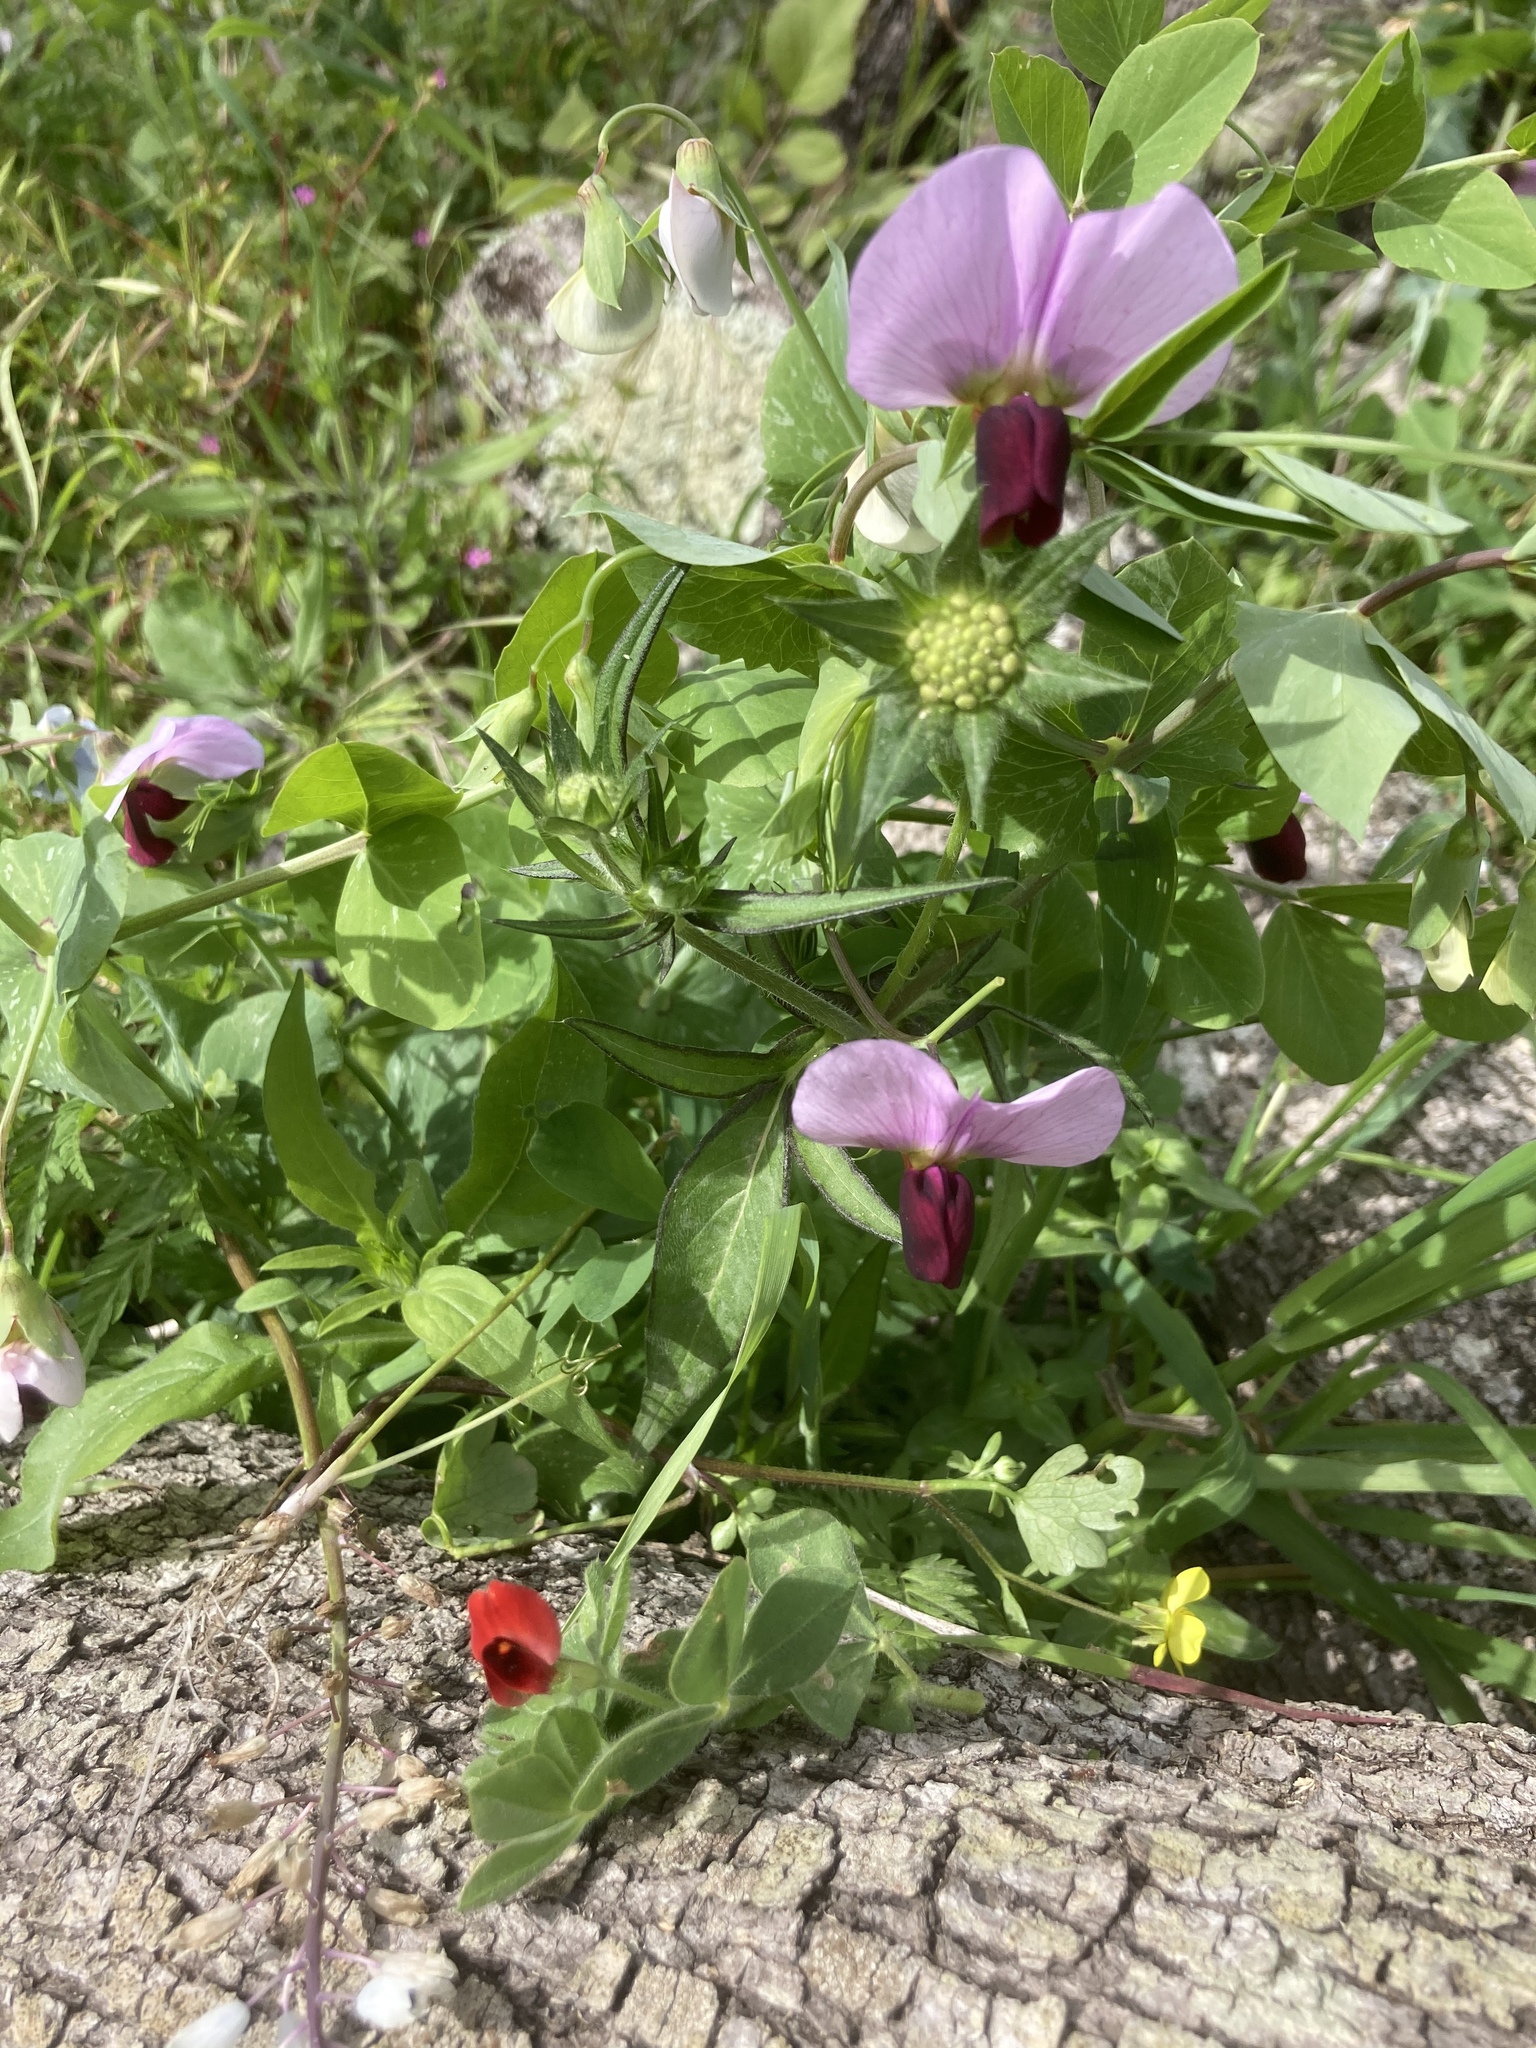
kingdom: Plantae
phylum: Tracheophyta
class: Magnoliopsida
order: Fabales
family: Fabaceae
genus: Lathyrus
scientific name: Lathyrus oleraceus
